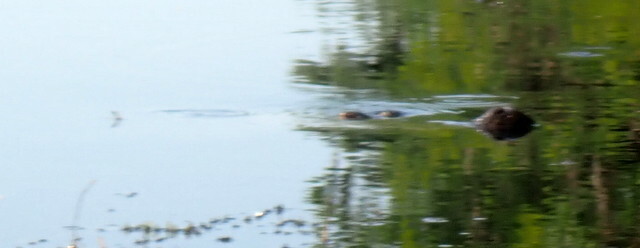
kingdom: Animalia
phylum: Chordata
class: Crocodylia
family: Alligatoridae
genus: Alligator
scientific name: Alligator mississippiensis
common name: American alligator
